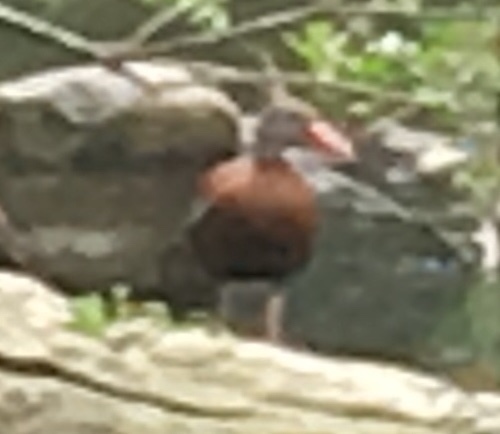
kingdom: Animalia
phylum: Chordata
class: Aves
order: Anseriformes
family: Anatidae
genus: Dendrocygna
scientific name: Dendrocygna autumnalis
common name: Black-bellied whistling duck
